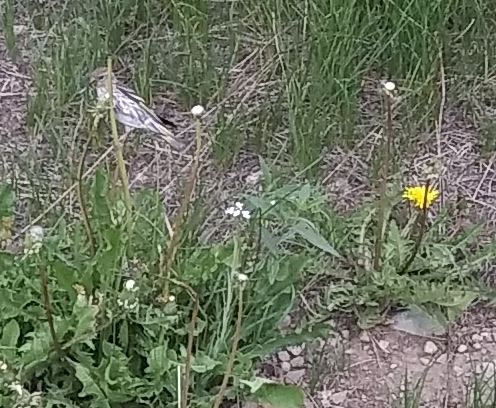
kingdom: Animalia
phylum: Chordata
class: Aves
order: Passeriformes
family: Fringillidae
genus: Spinus
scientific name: Spinus pinus
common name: Pine siskin
